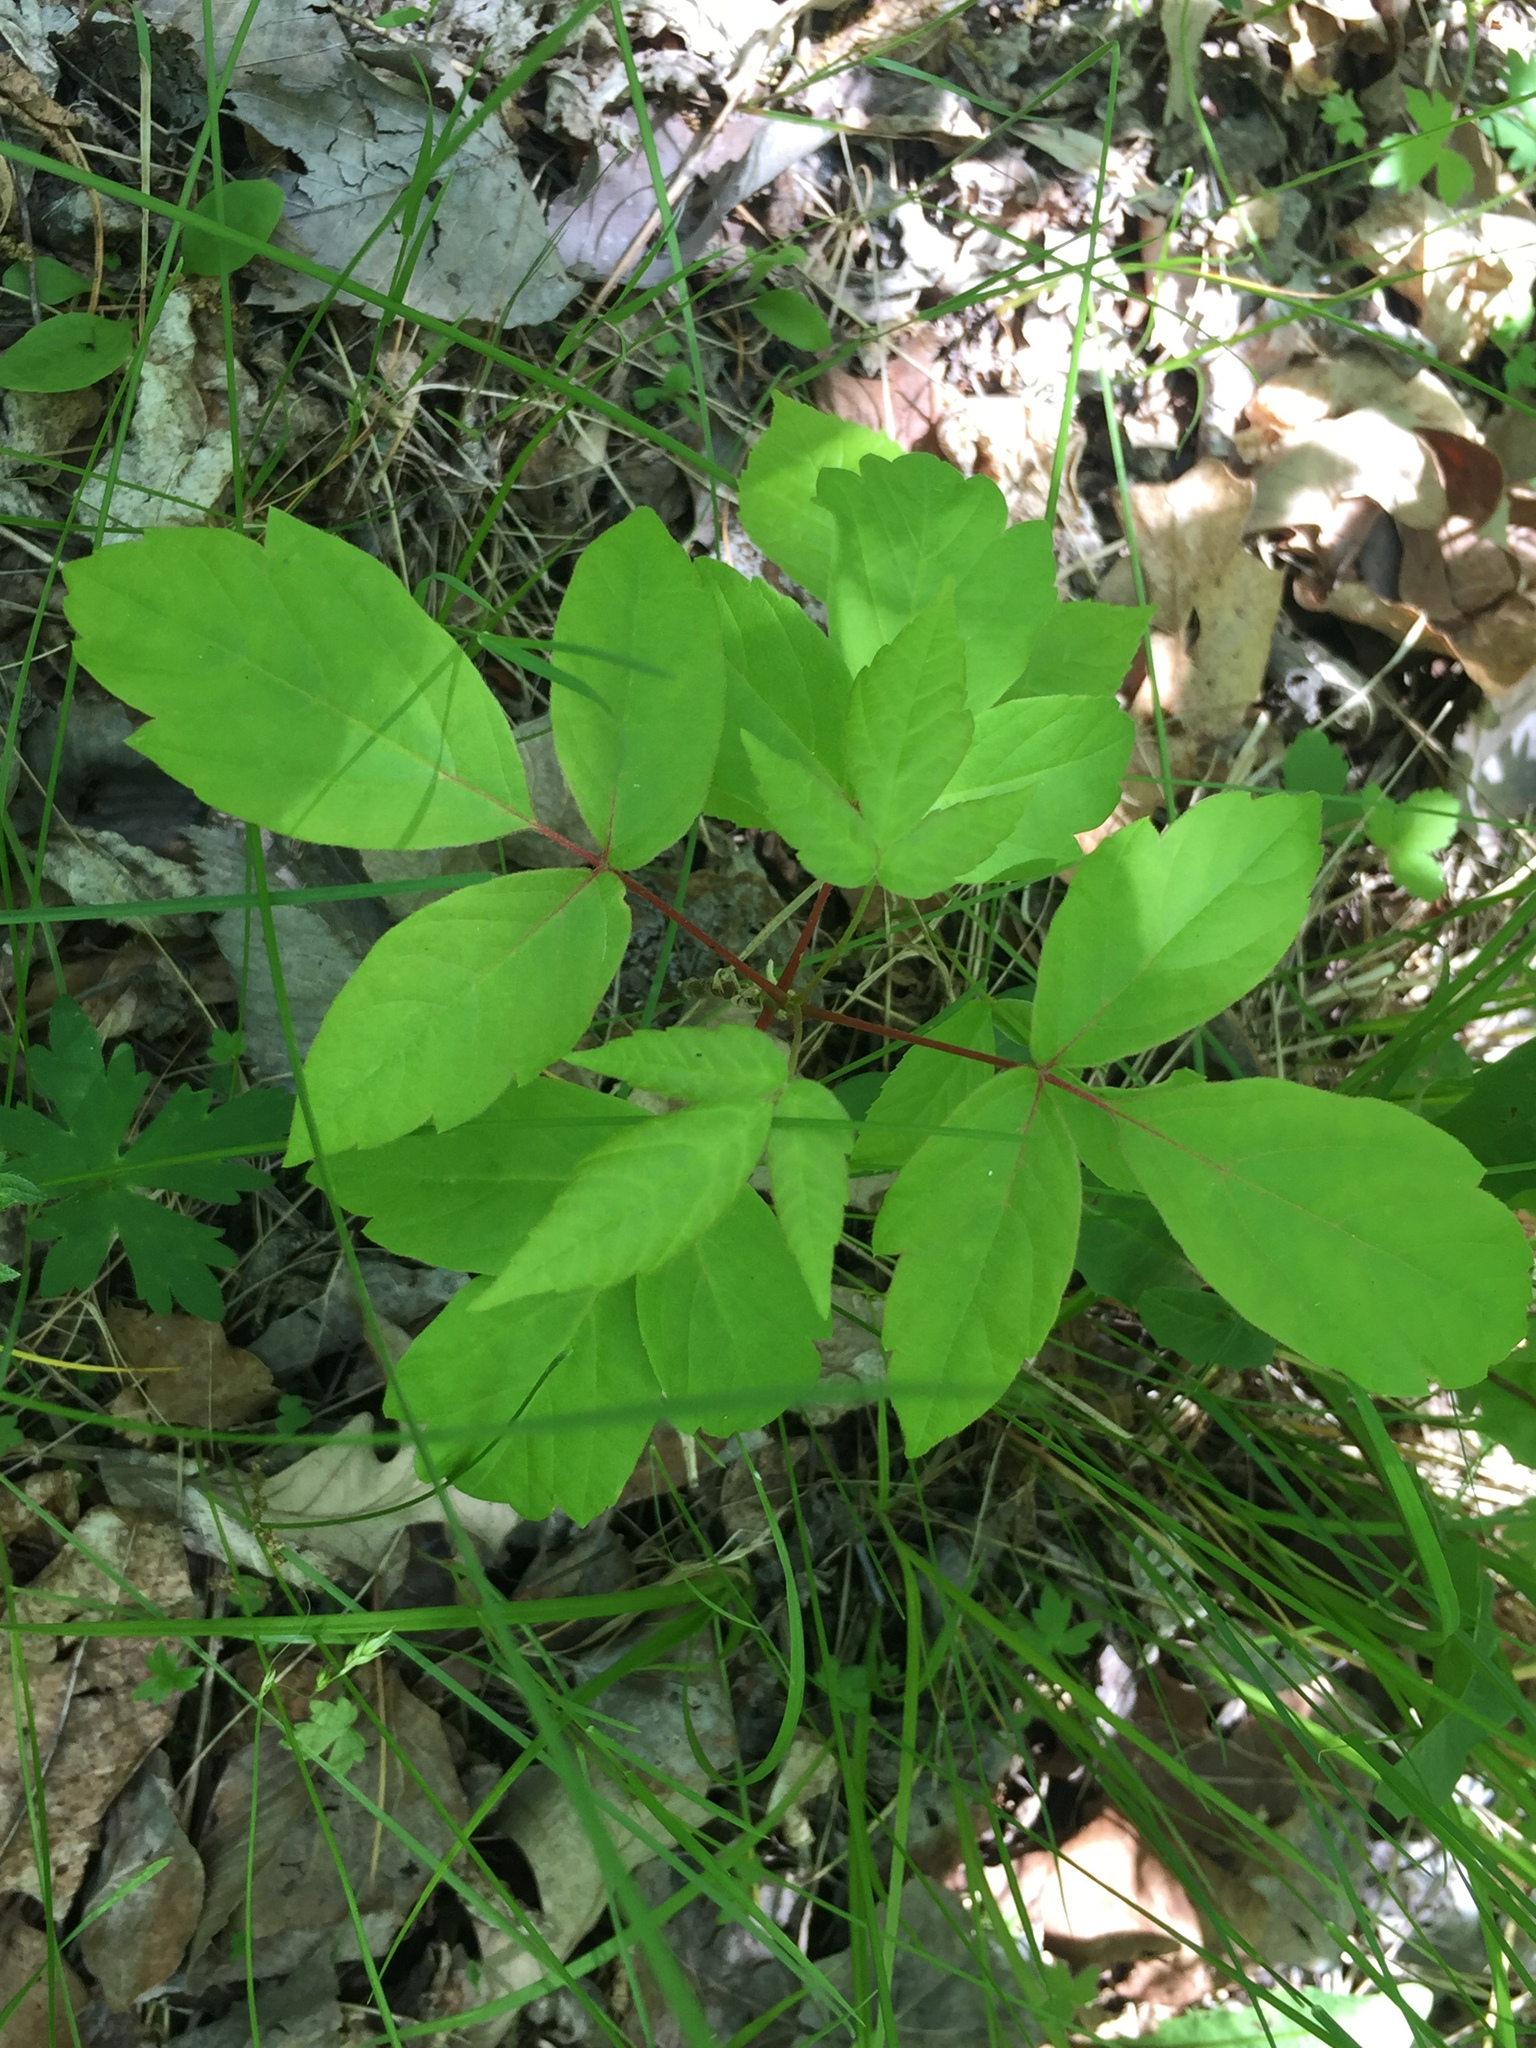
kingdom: Plantae
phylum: Tracheophyta
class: Magnoliopsida
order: Sapindales
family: Sapindaceae
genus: Acer
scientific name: Acer negundo
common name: Ashleaf maple
